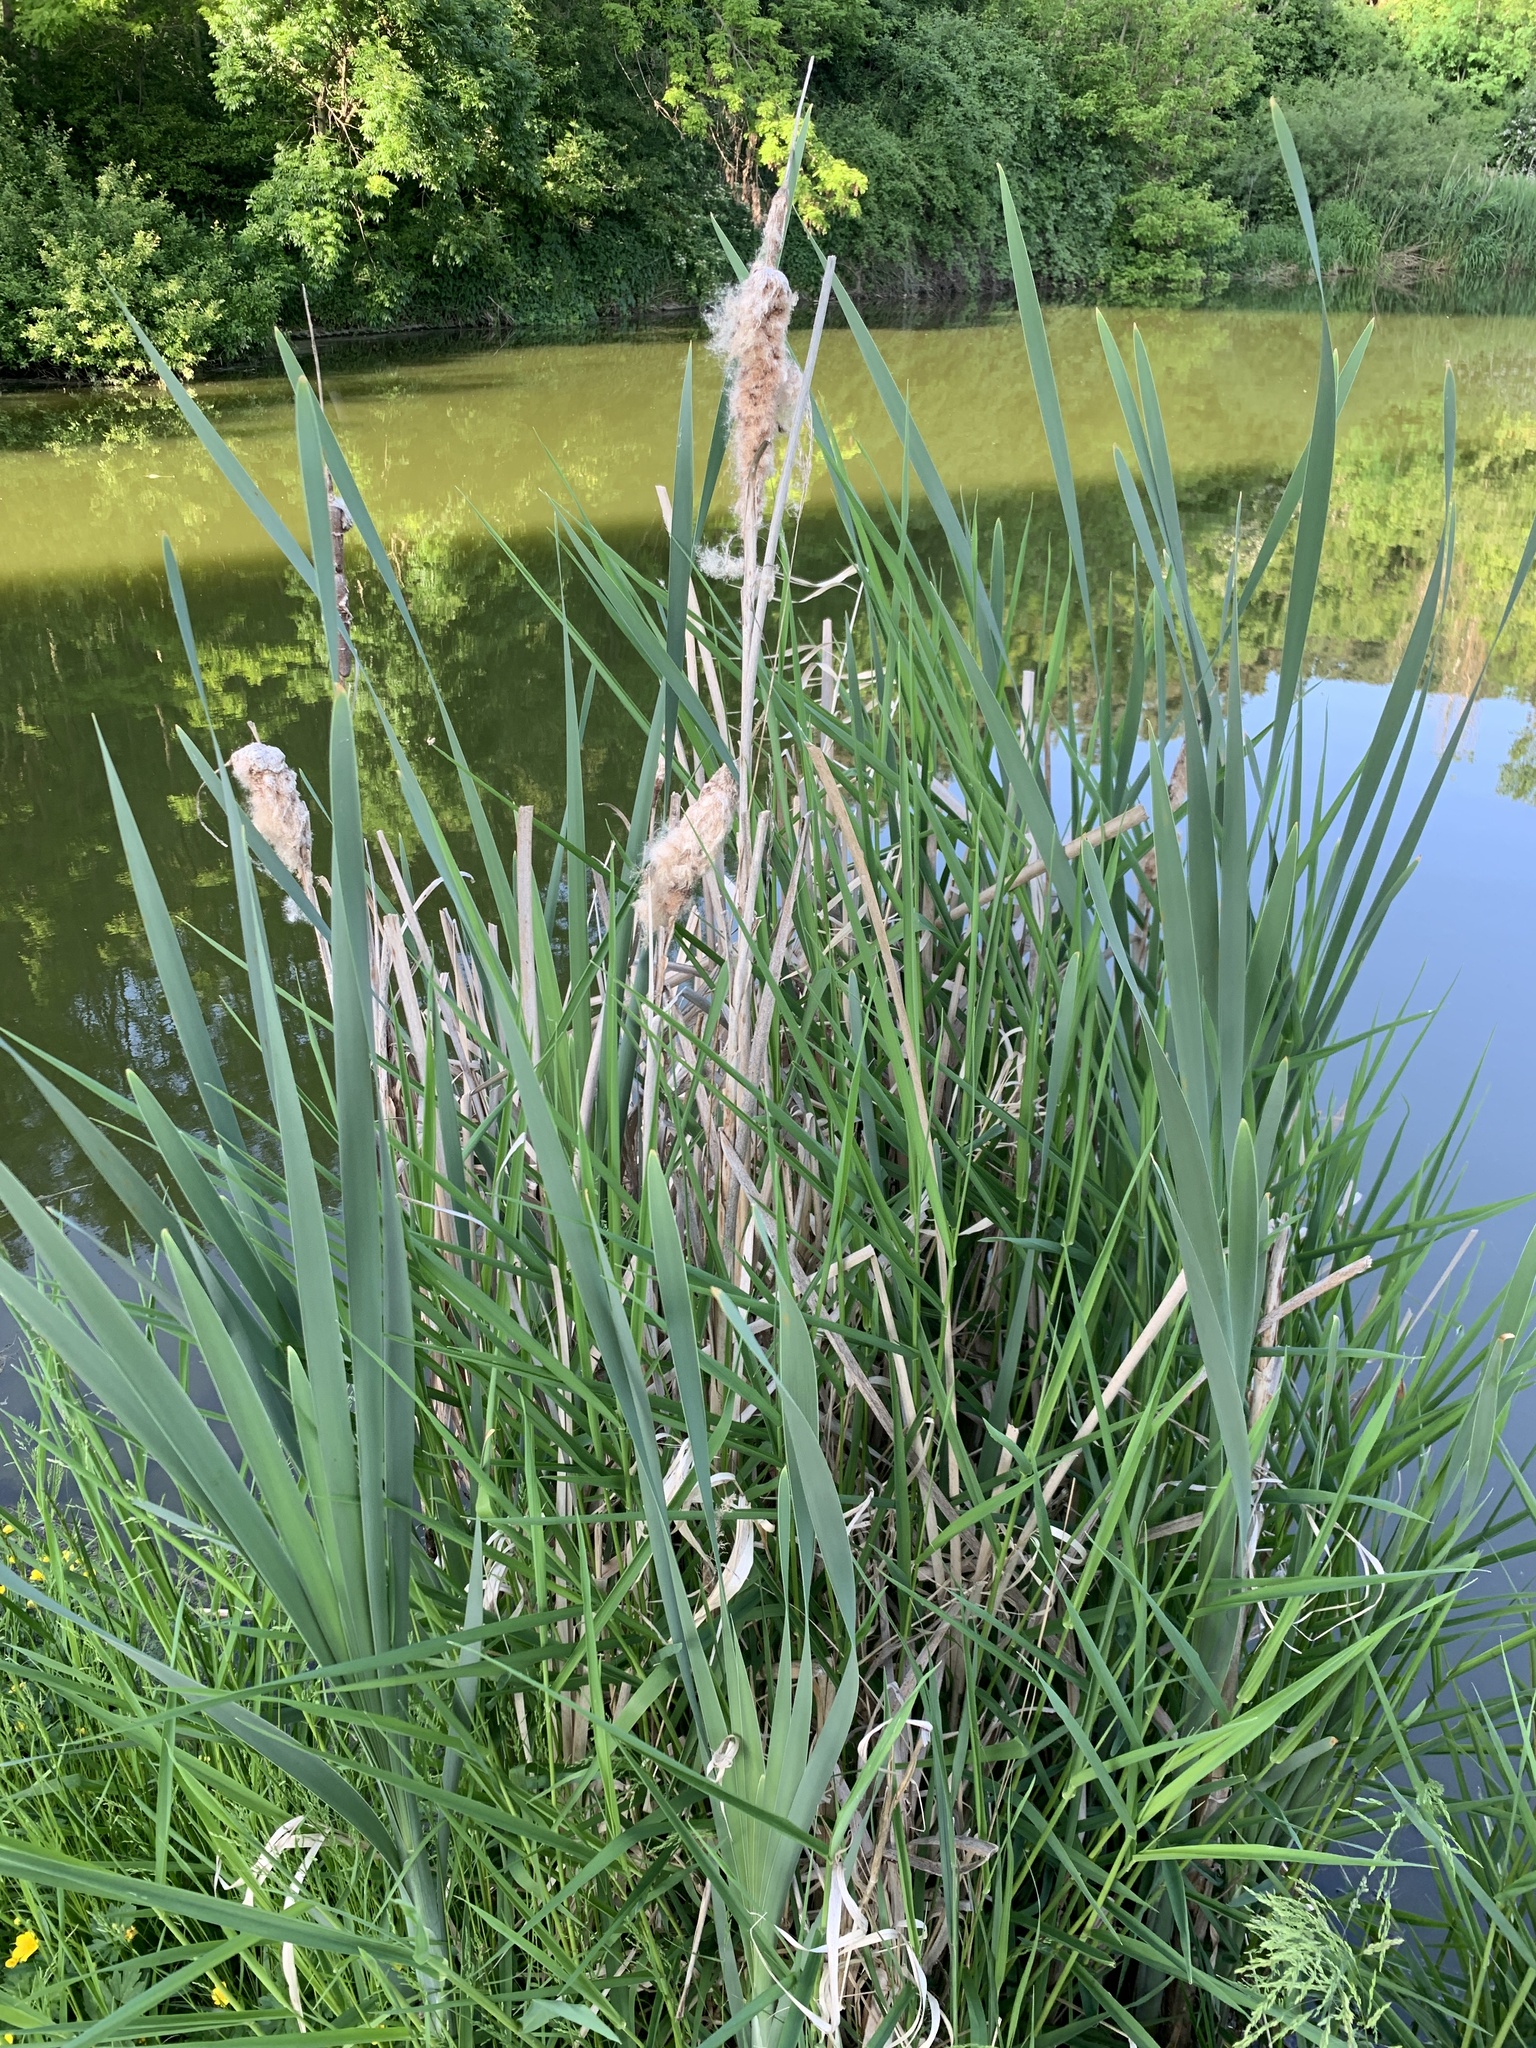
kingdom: Plantae
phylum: Tracheophyta
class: Liliopsida
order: Poales
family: Typhaceae
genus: Typha
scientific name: Typha latifolia
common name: Broadleaf cattail
